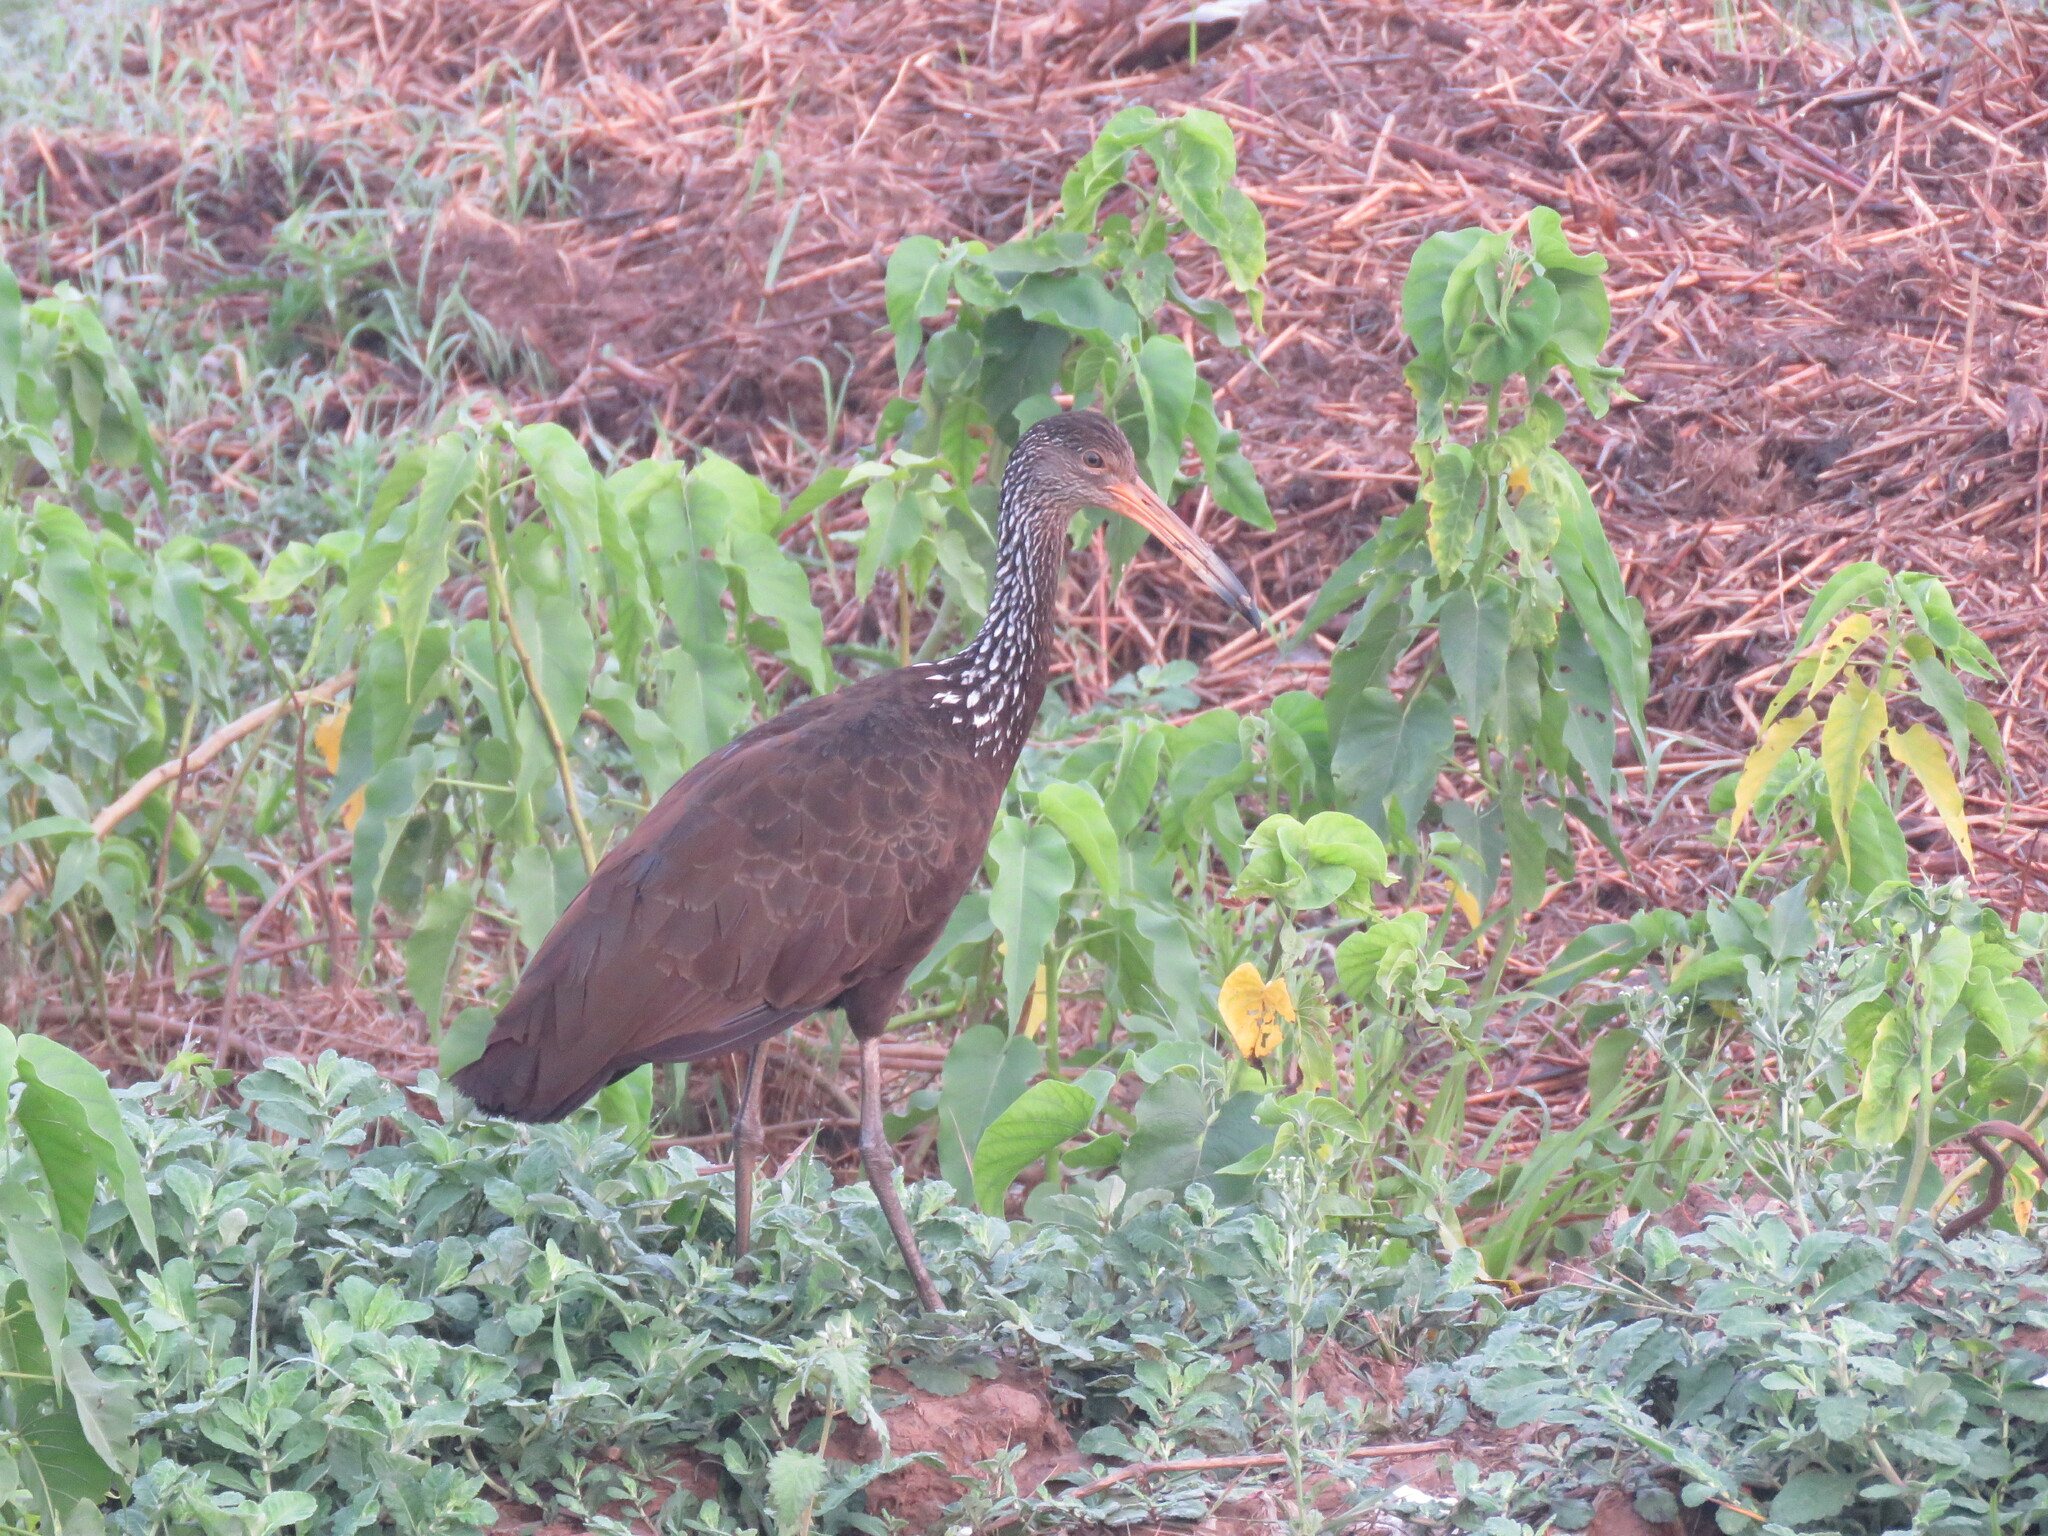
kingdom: Animalia
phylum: Chordata
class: Aves
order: Gruiformes
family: Aramidae
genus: Aramus
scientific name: Aramus guarauna
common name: Limpkin
